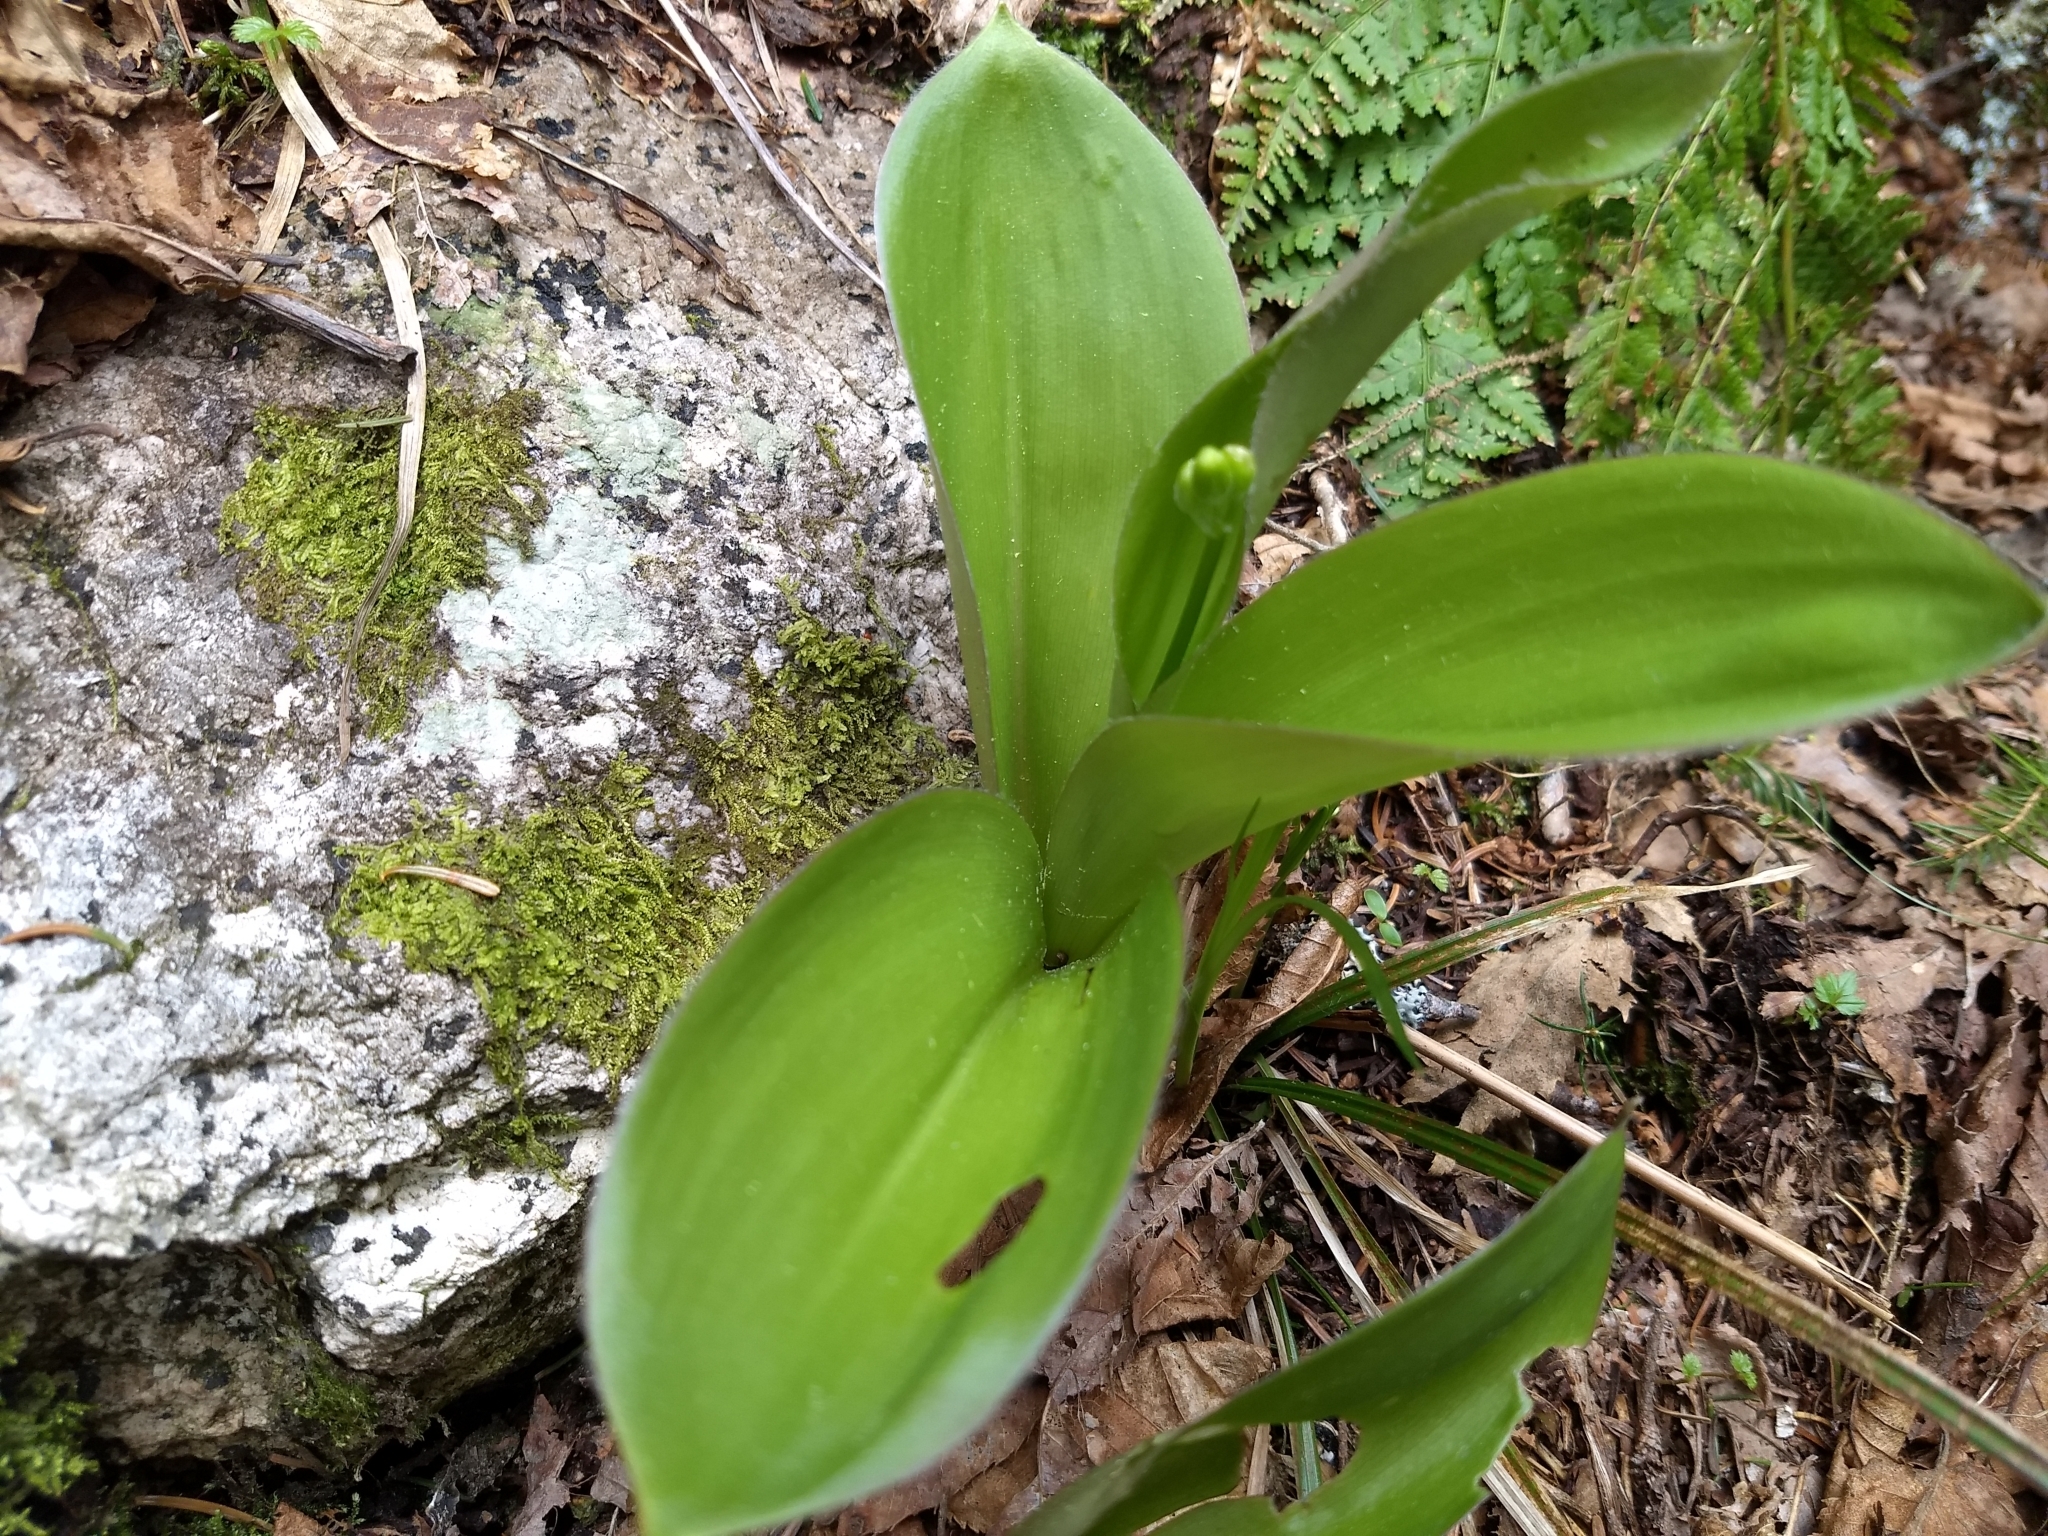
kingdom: Plantae
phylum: Tracheophyta
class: Liliopsida
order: Liliales
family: Liliaceae
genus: Clintonia
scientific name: Clintonia borealis
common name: Yellow clintonia
